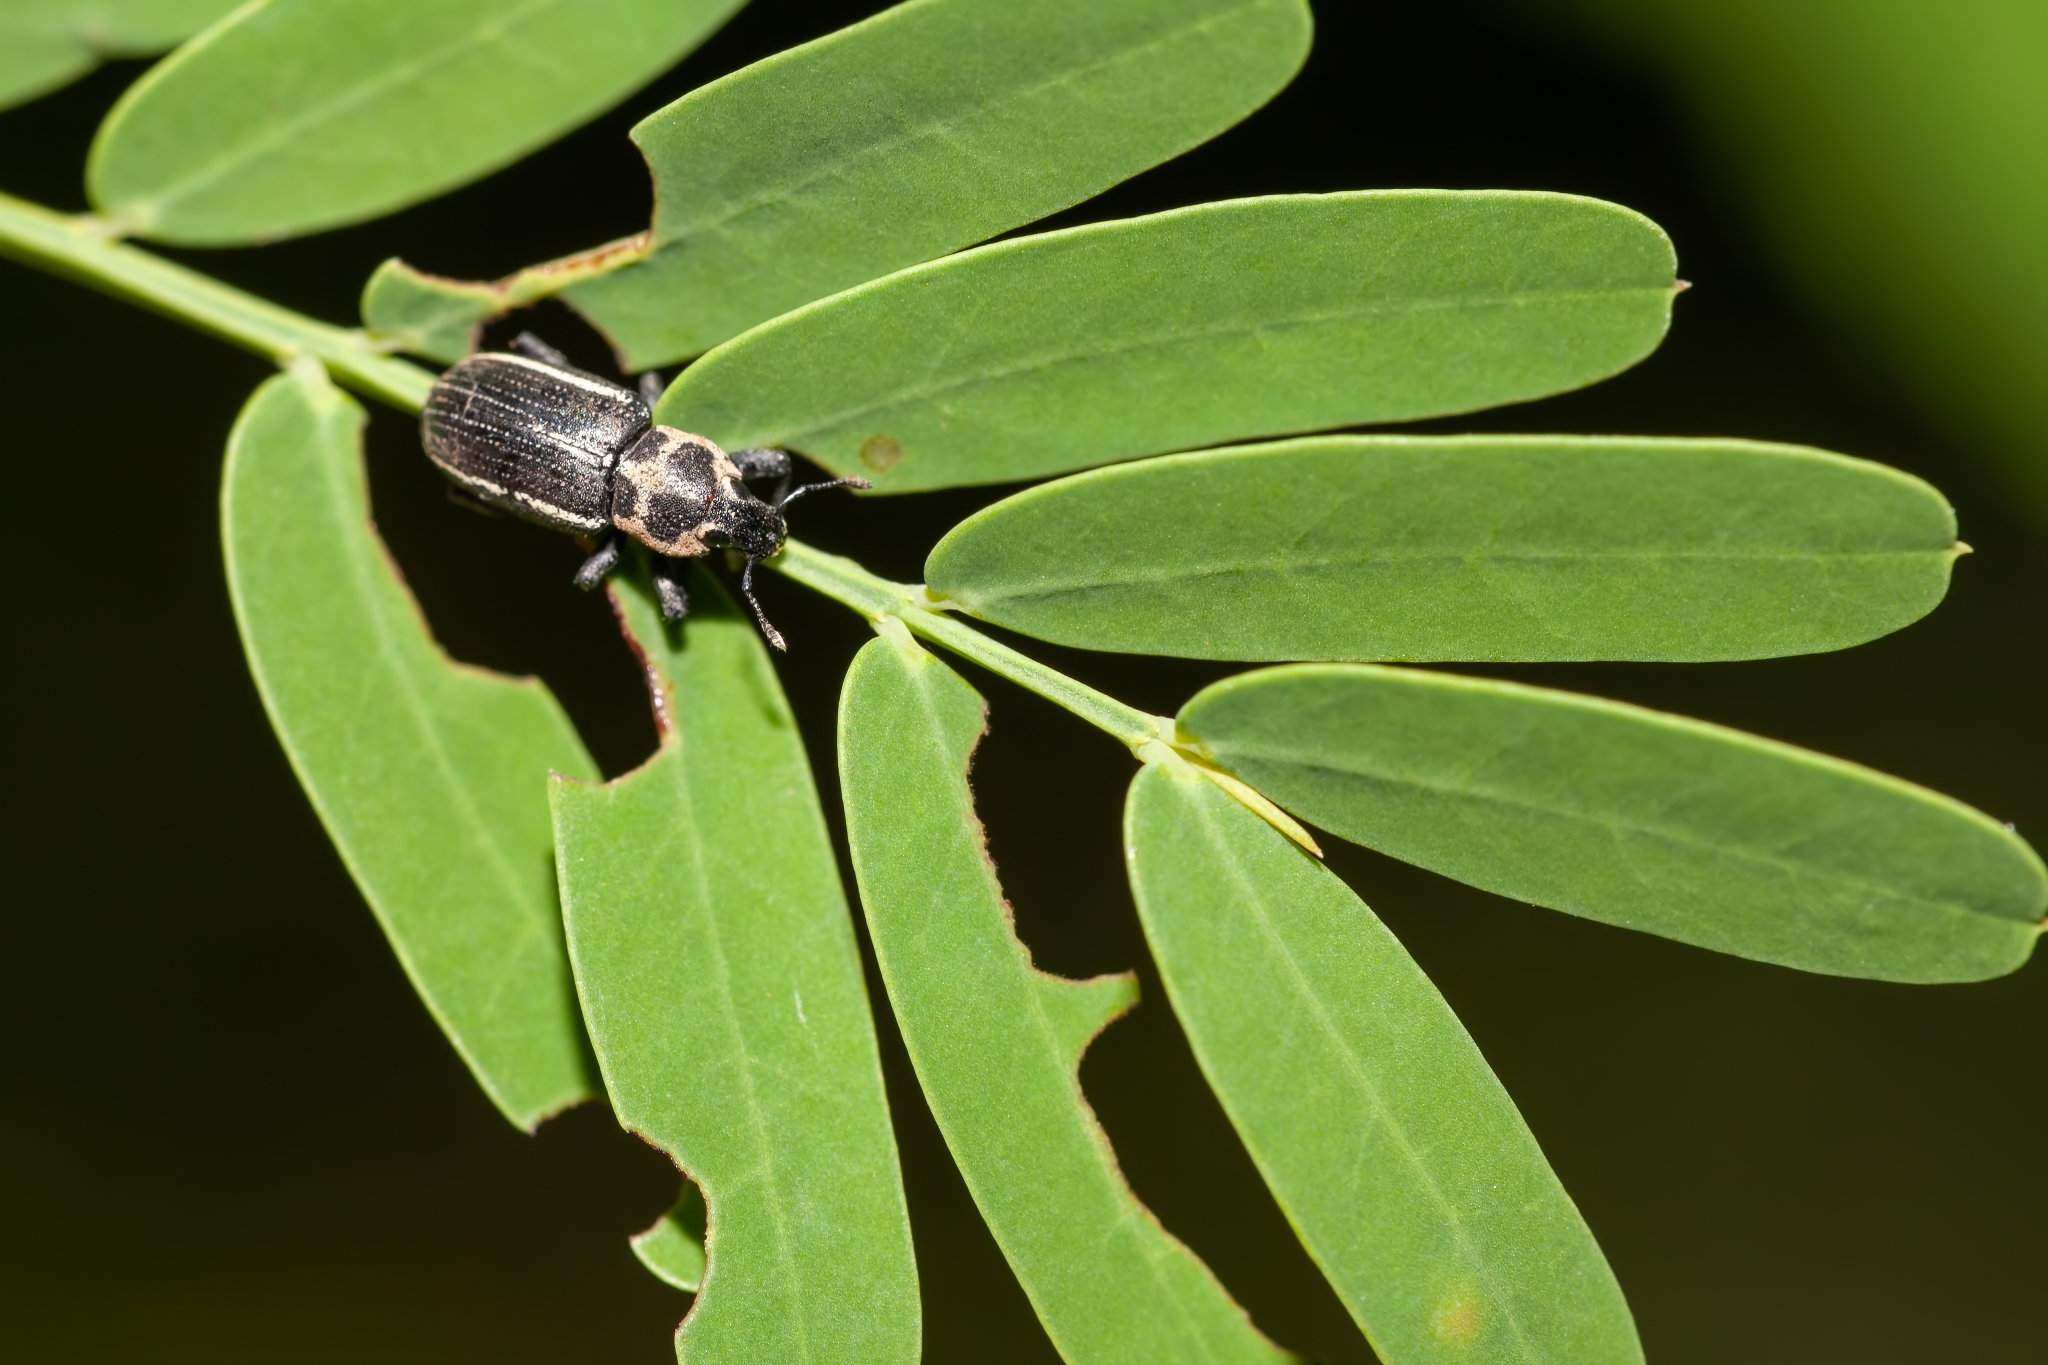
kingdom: Animalia
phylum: Arthropoda
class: Insecta
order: Coleoptera
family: Curculionidae
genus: Eudiagogus
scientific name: Eudiagogus maryae
